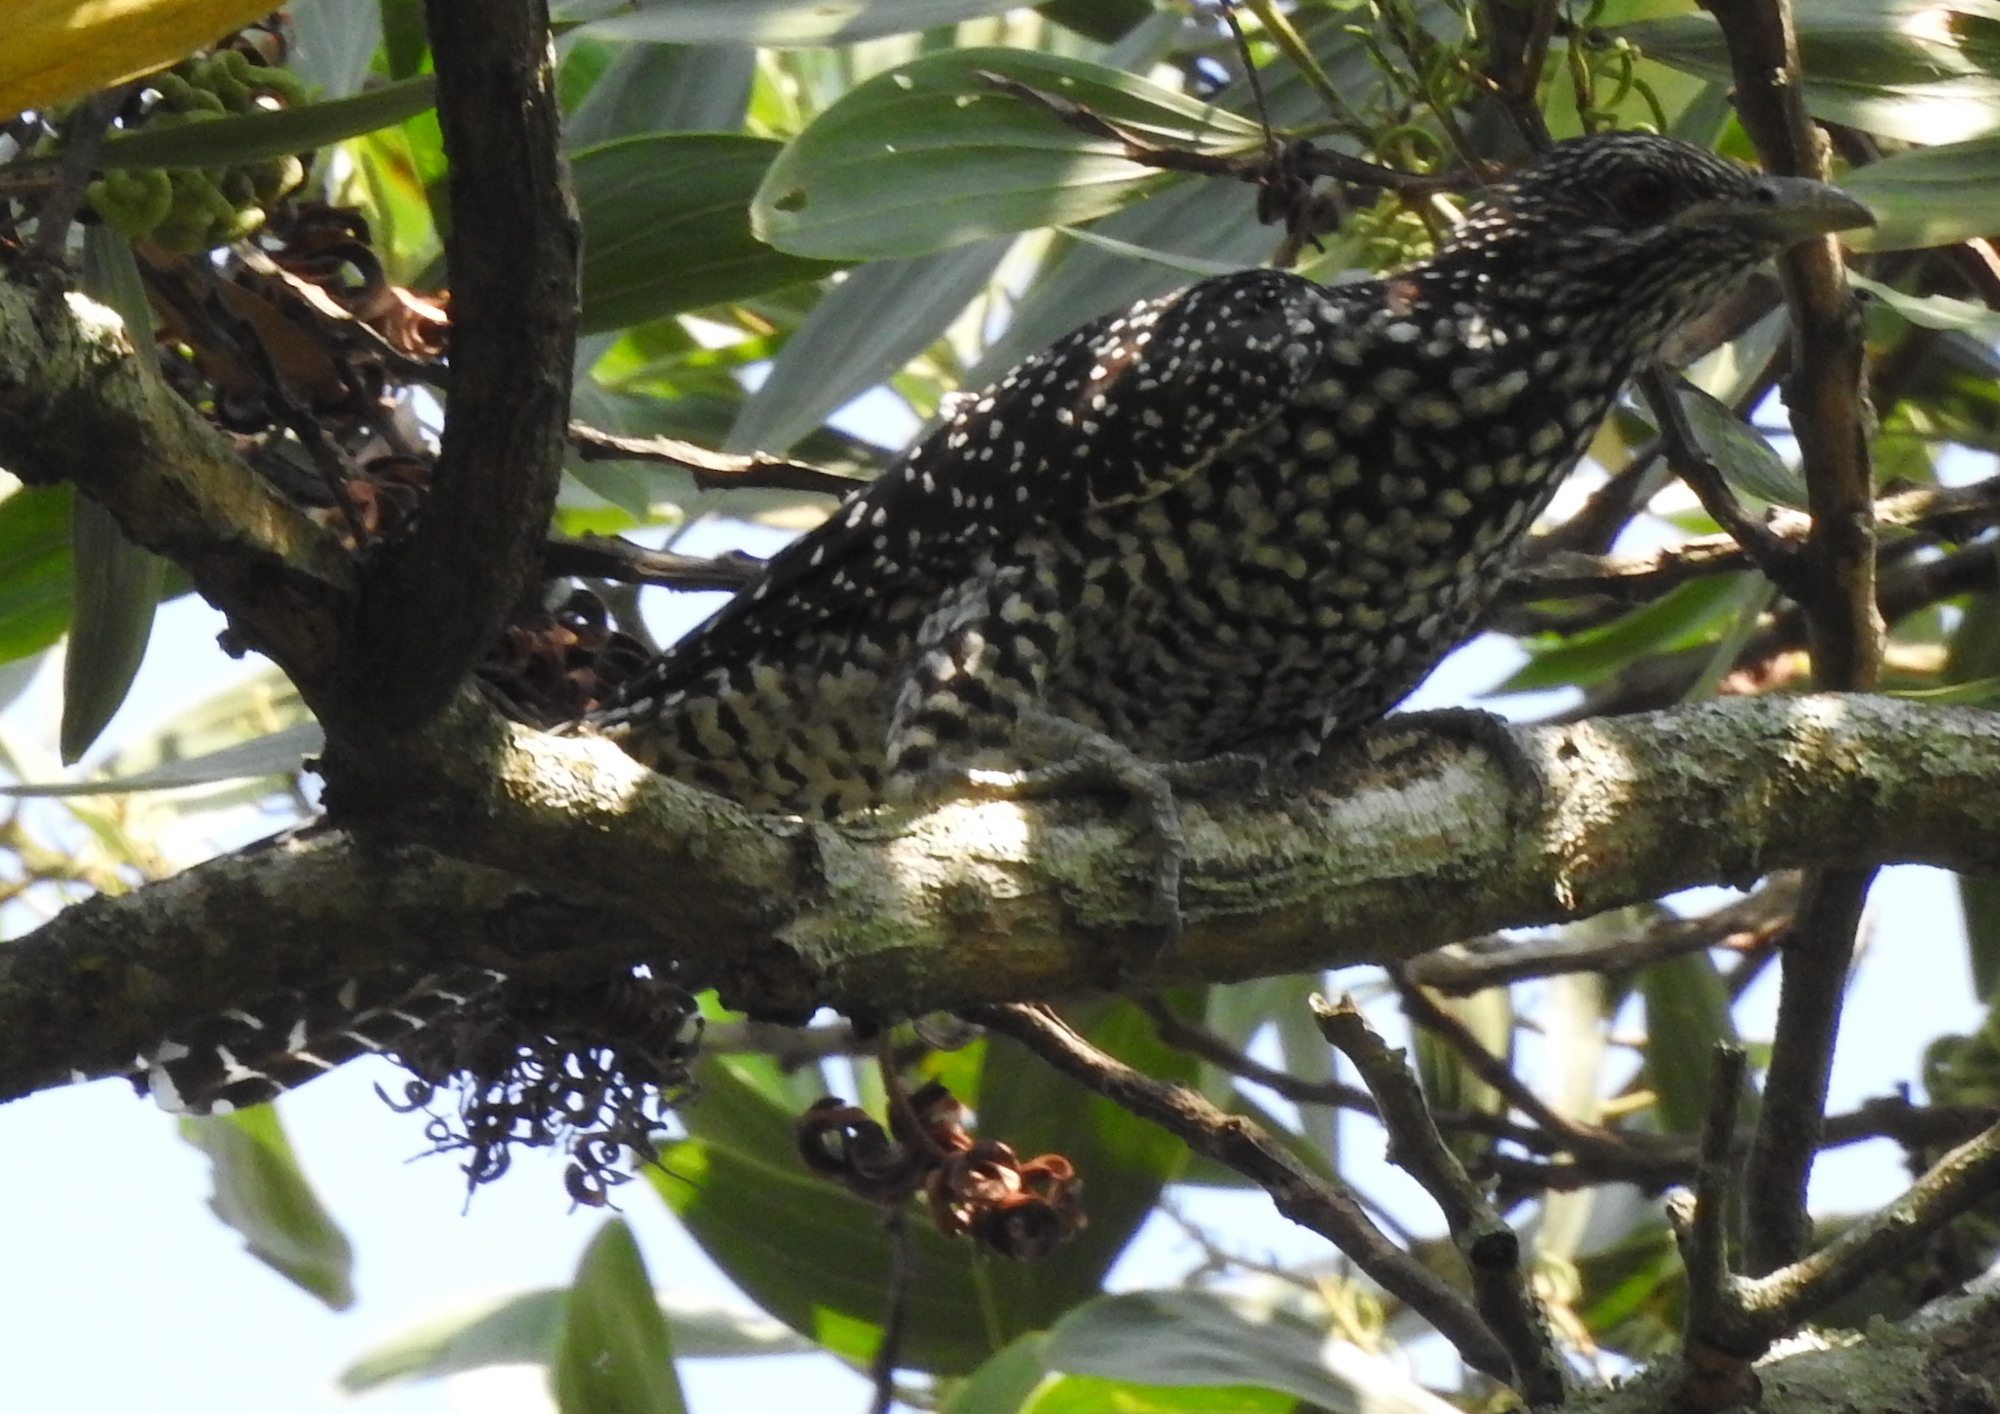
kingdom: Animalia
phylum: Chordata
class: Aves
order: Cuculiformes
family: Cuculidae
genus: Eudynamys
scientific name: Eudynamys scolopaceus
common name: Asian koel
